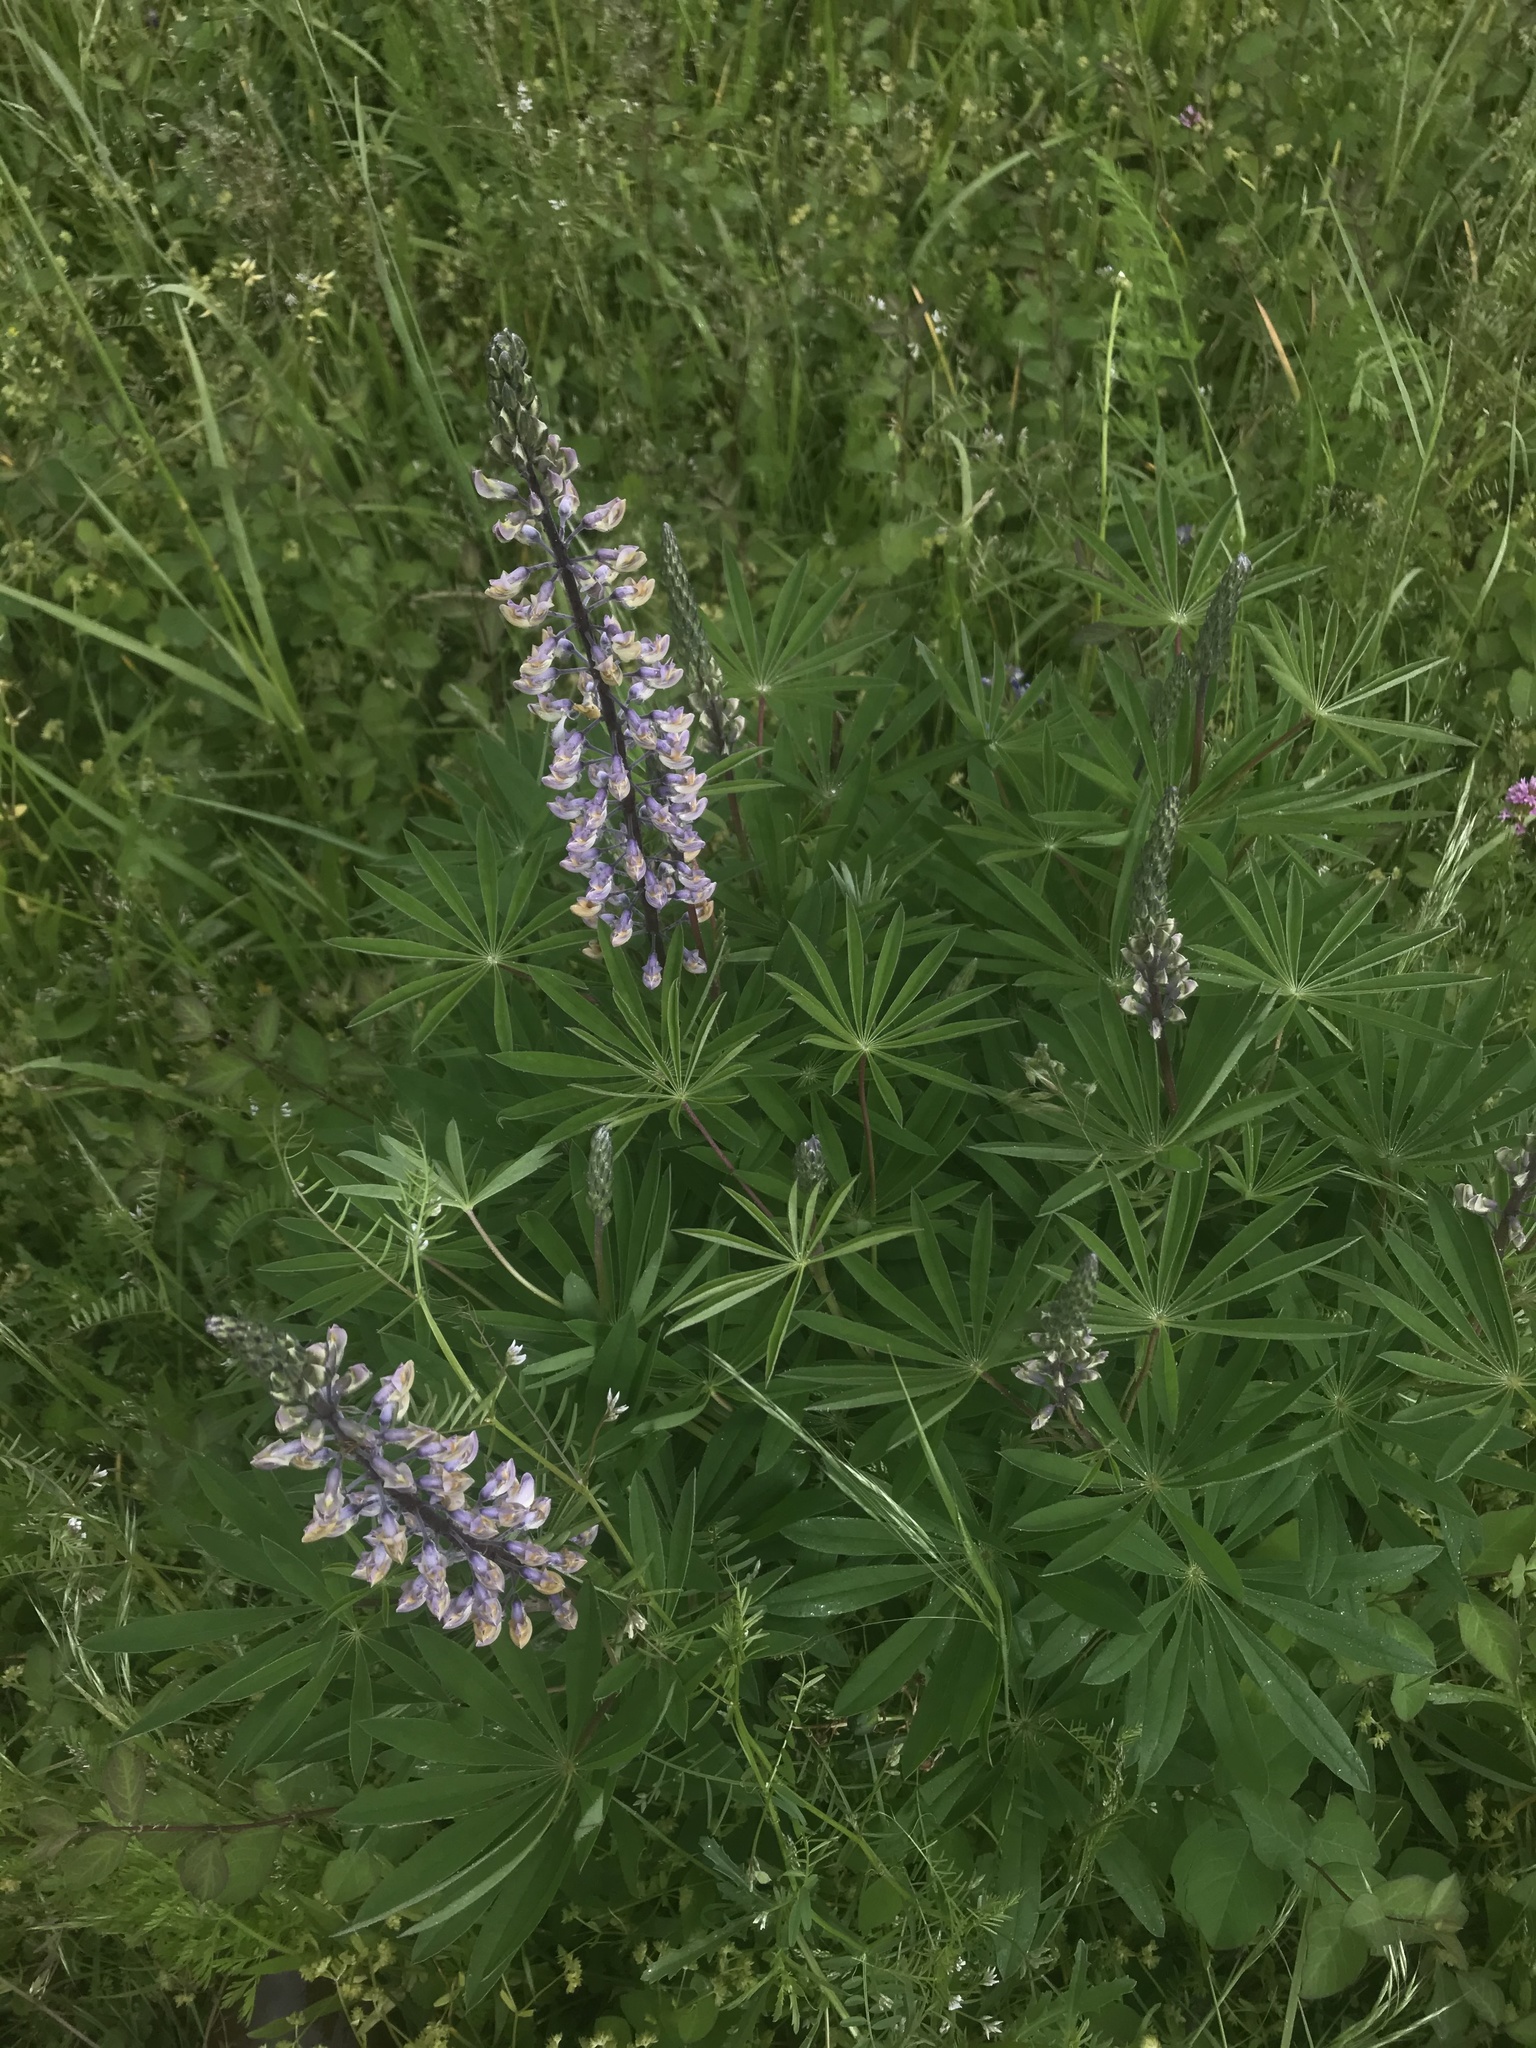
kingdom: Plantae
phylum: Tracheophyta
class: Magnoliopsida
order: Fabales
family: Fabaceae
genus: Lupinus
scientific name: Lupinus oreganus
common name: Kincaid's lupine
